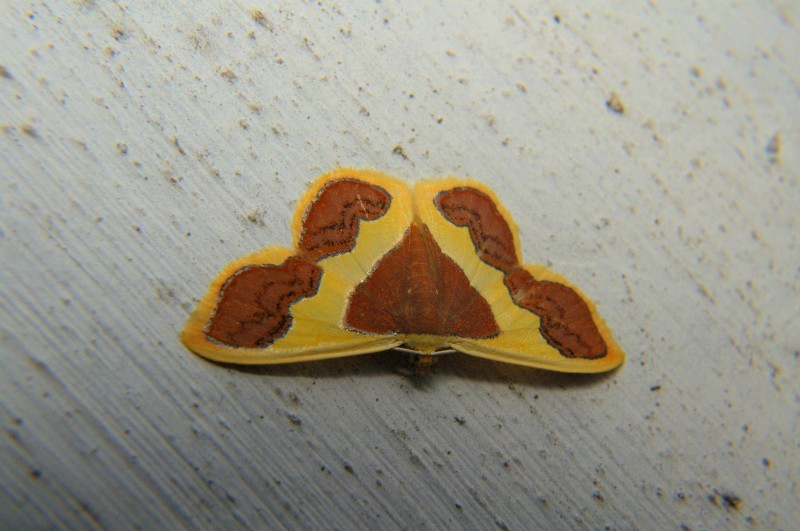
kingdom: Animalia
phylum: Arthropoda
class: Insecta
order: Lepidoptera
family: Geometridae
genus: Plutodes
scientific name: Plutodes transmutata
